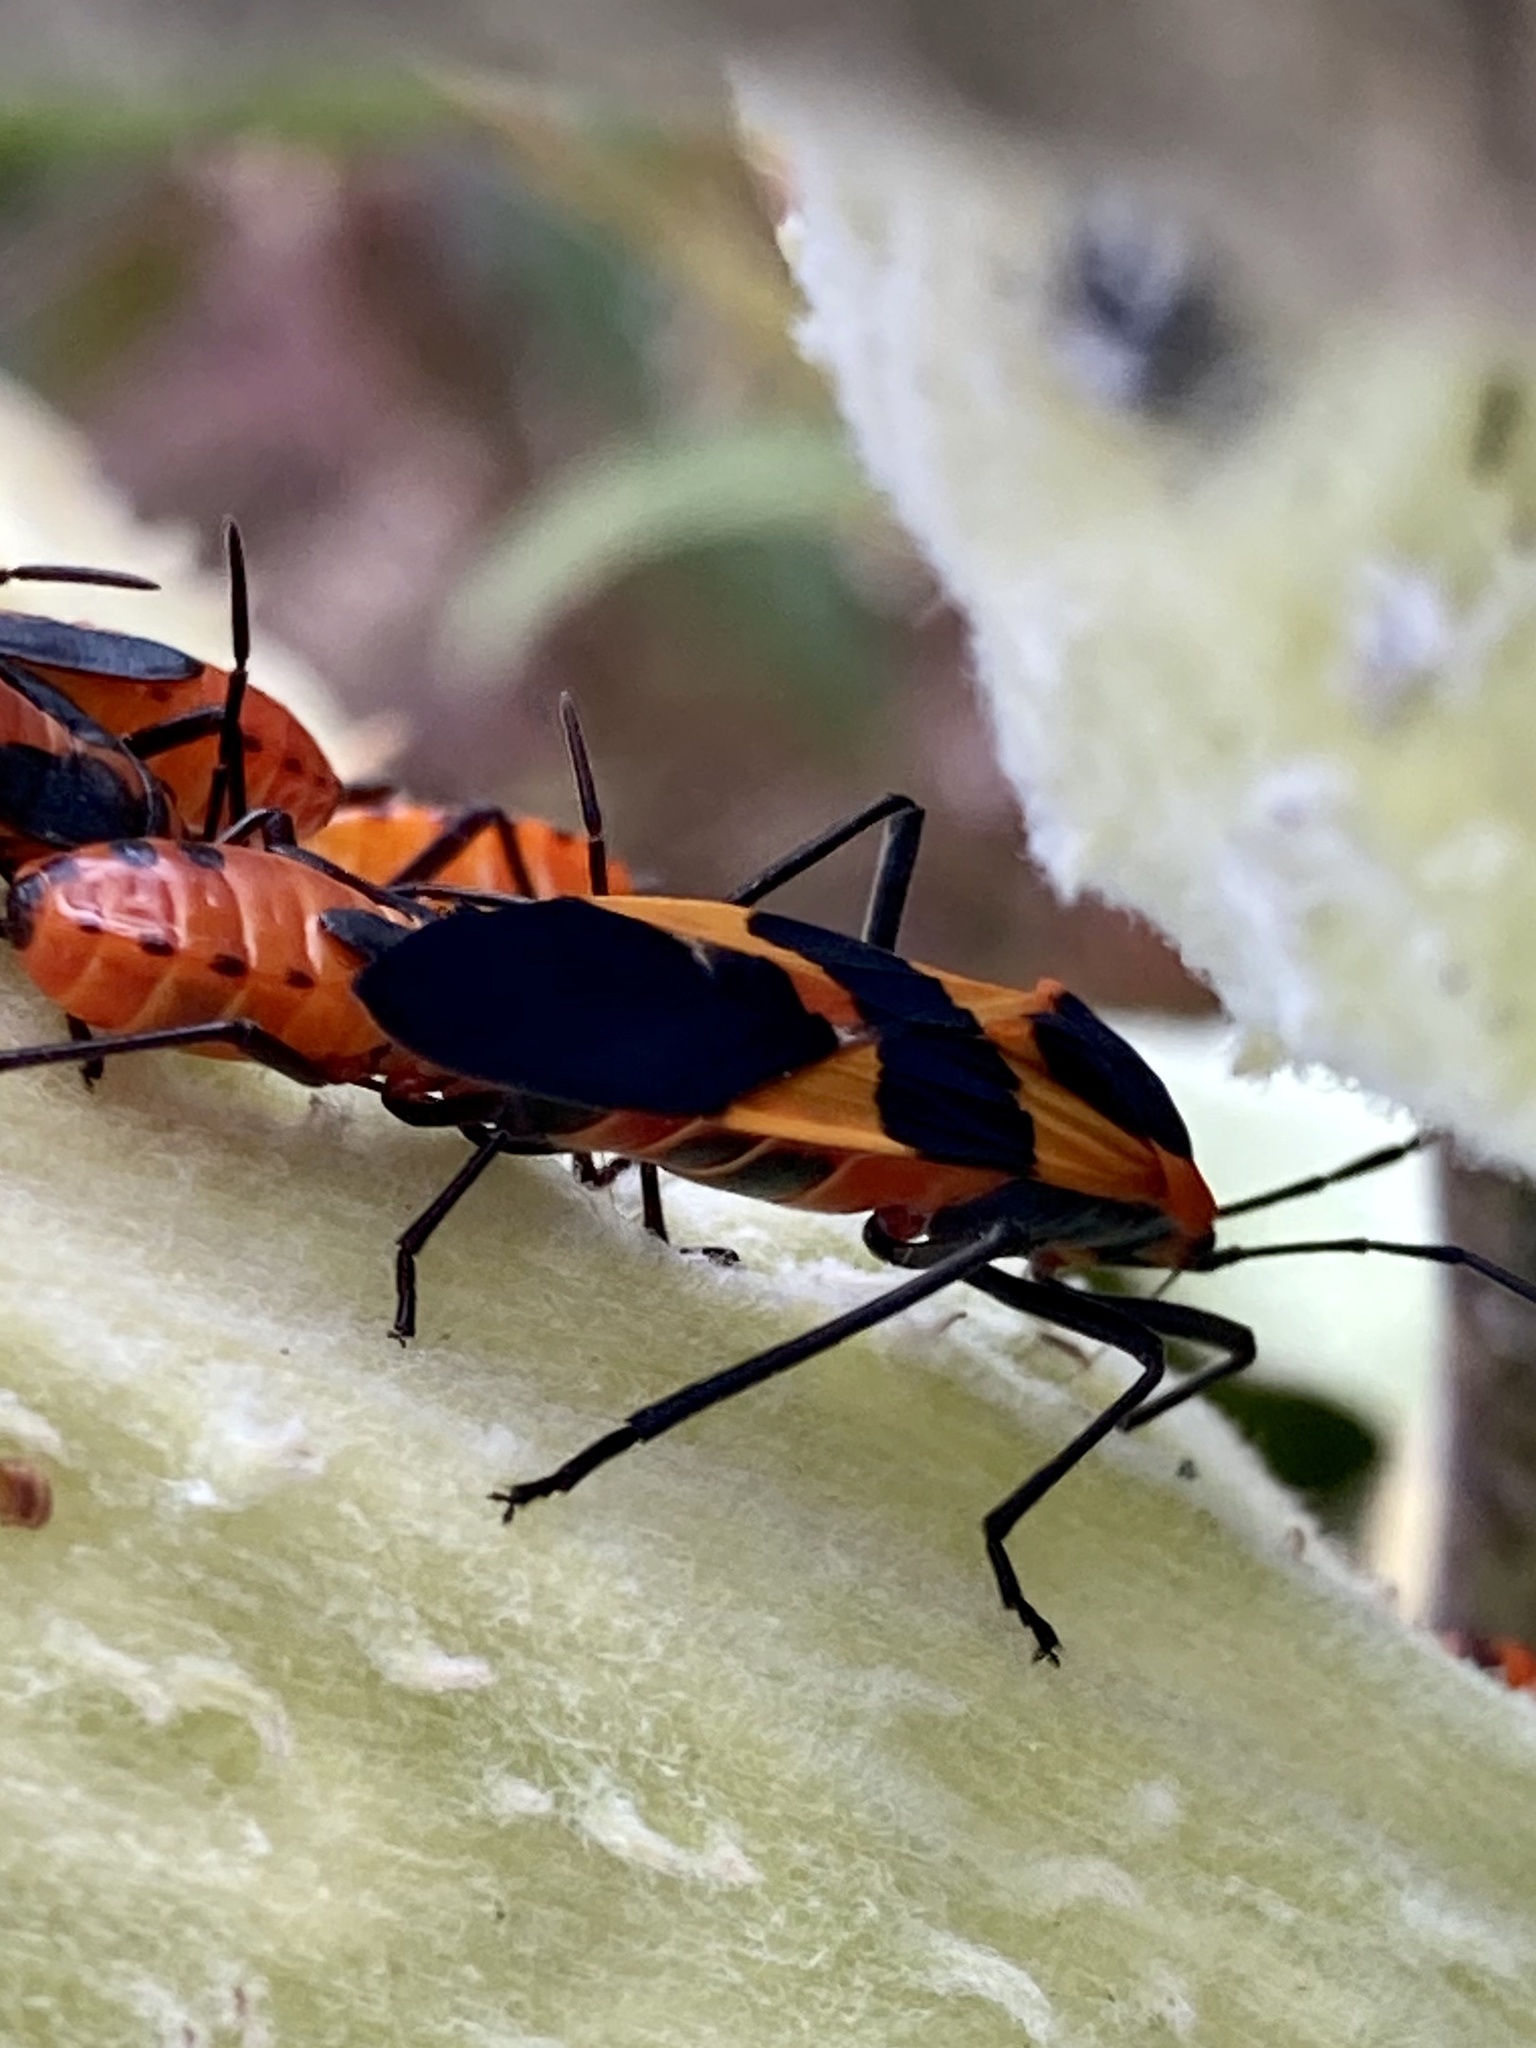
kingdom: Animalia
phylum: Arthropoda
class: Insecta
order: Hemiptera
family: Lygaeidae
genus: Oncopeltus
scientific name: Oncopeltus fasciatus
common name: Large milkweed bug
